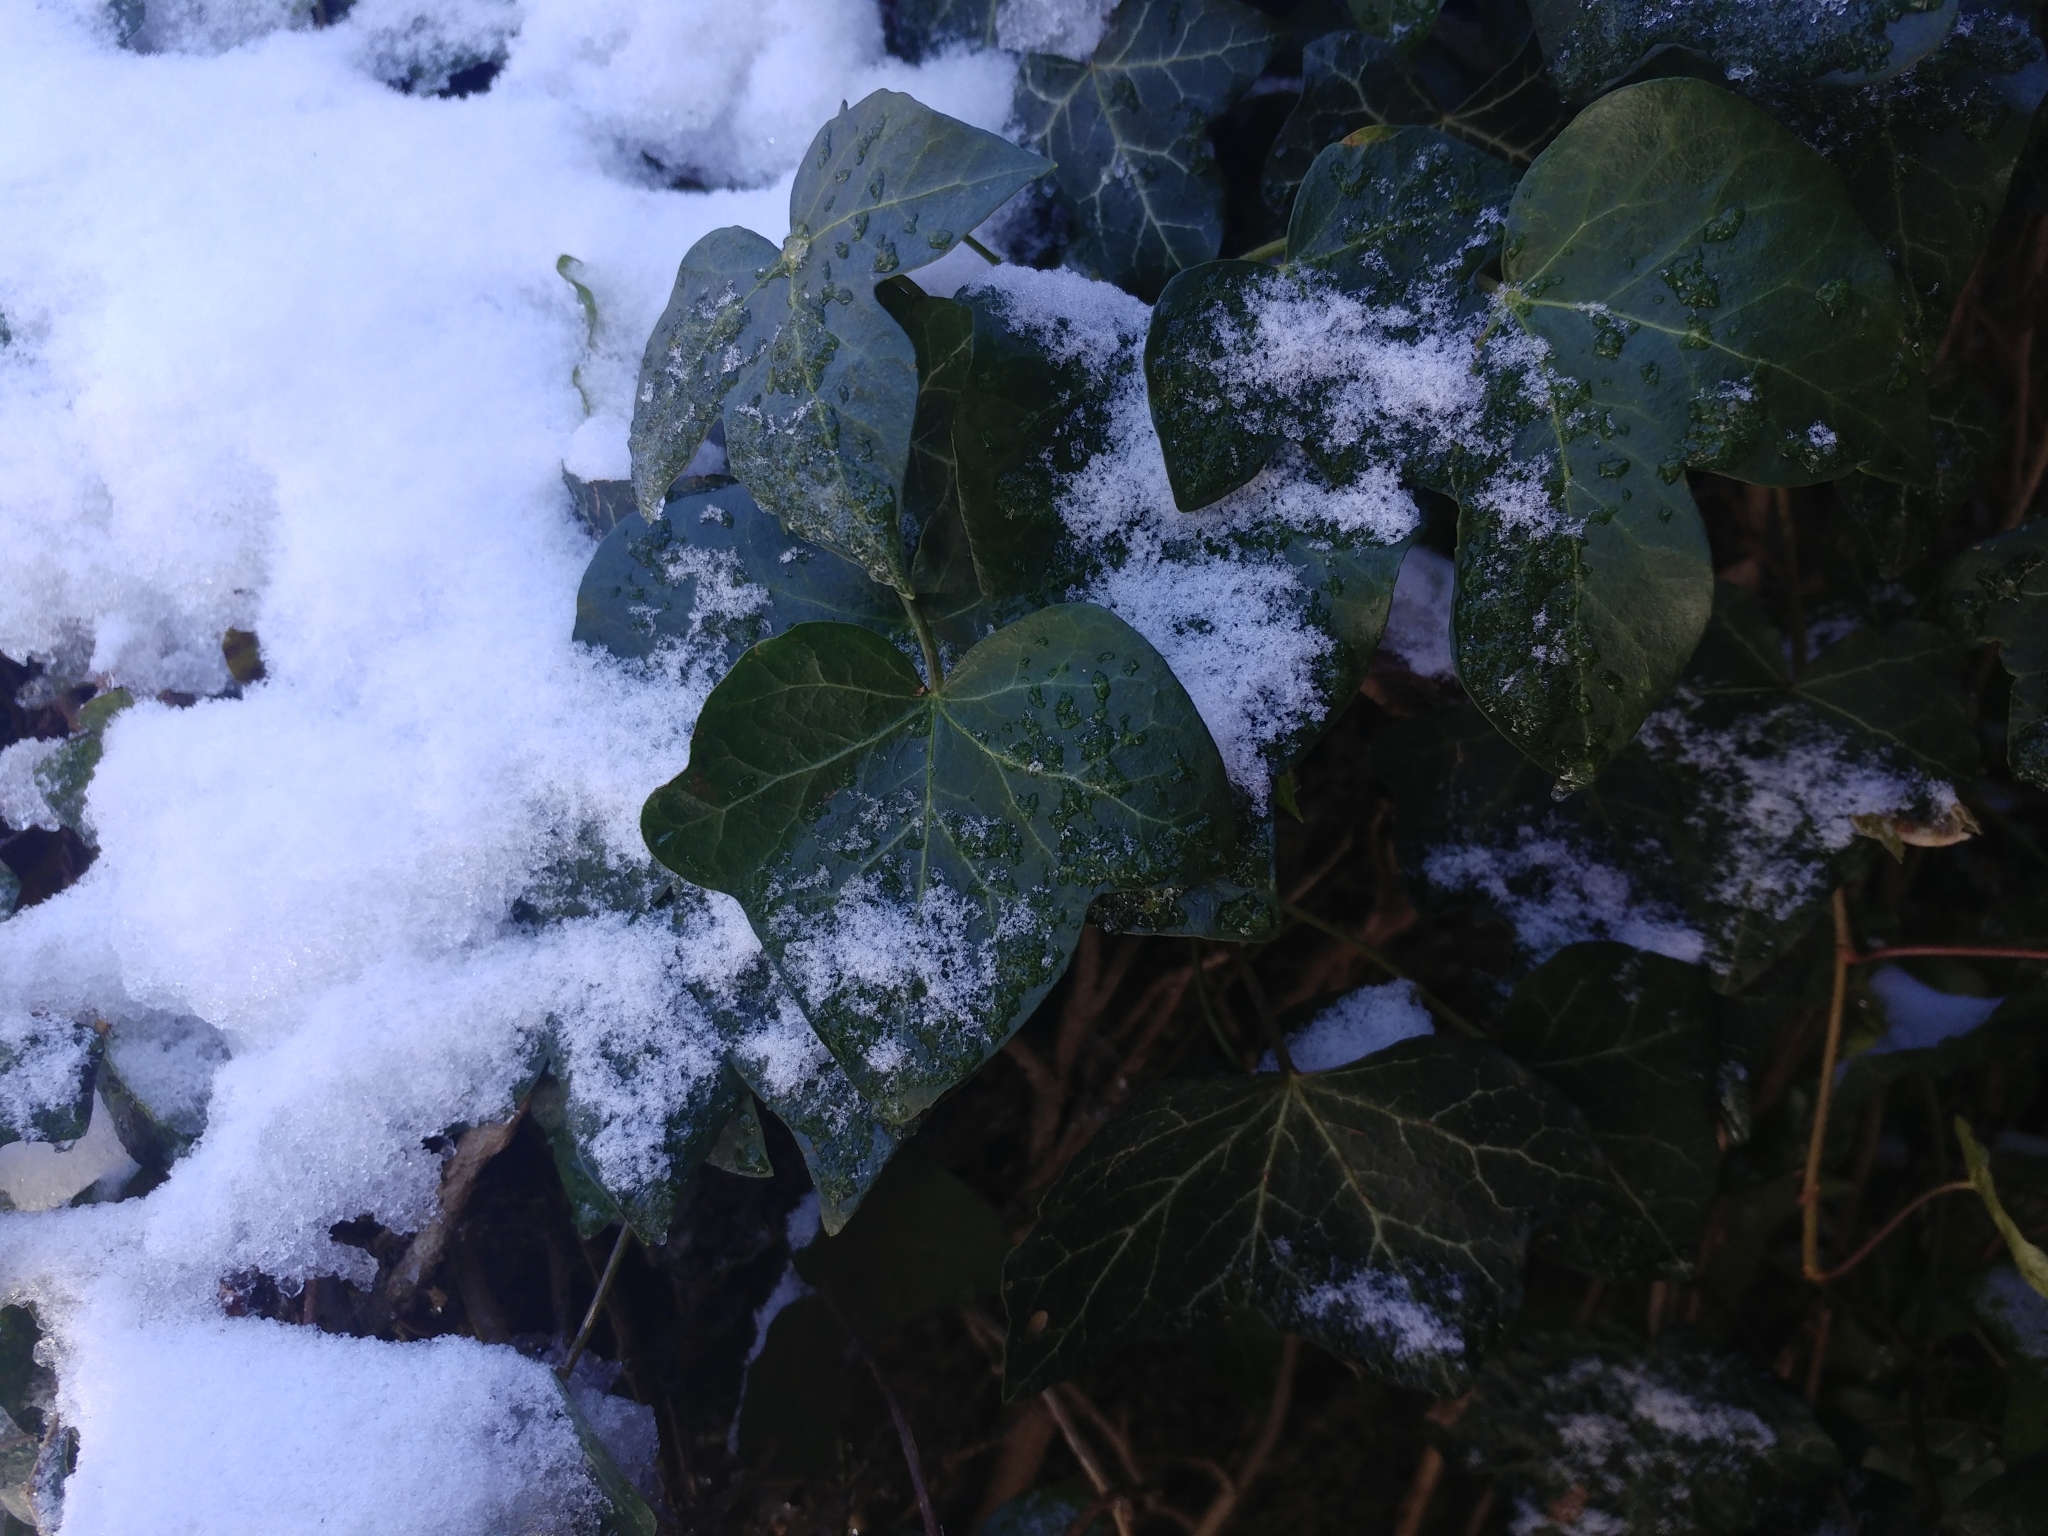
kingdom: Plantae
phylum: Tracheophyta
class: Magnoliopsida
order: Apiales
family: Araliaceae
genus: Hedera
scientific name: Hedera helix
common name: Ivy
